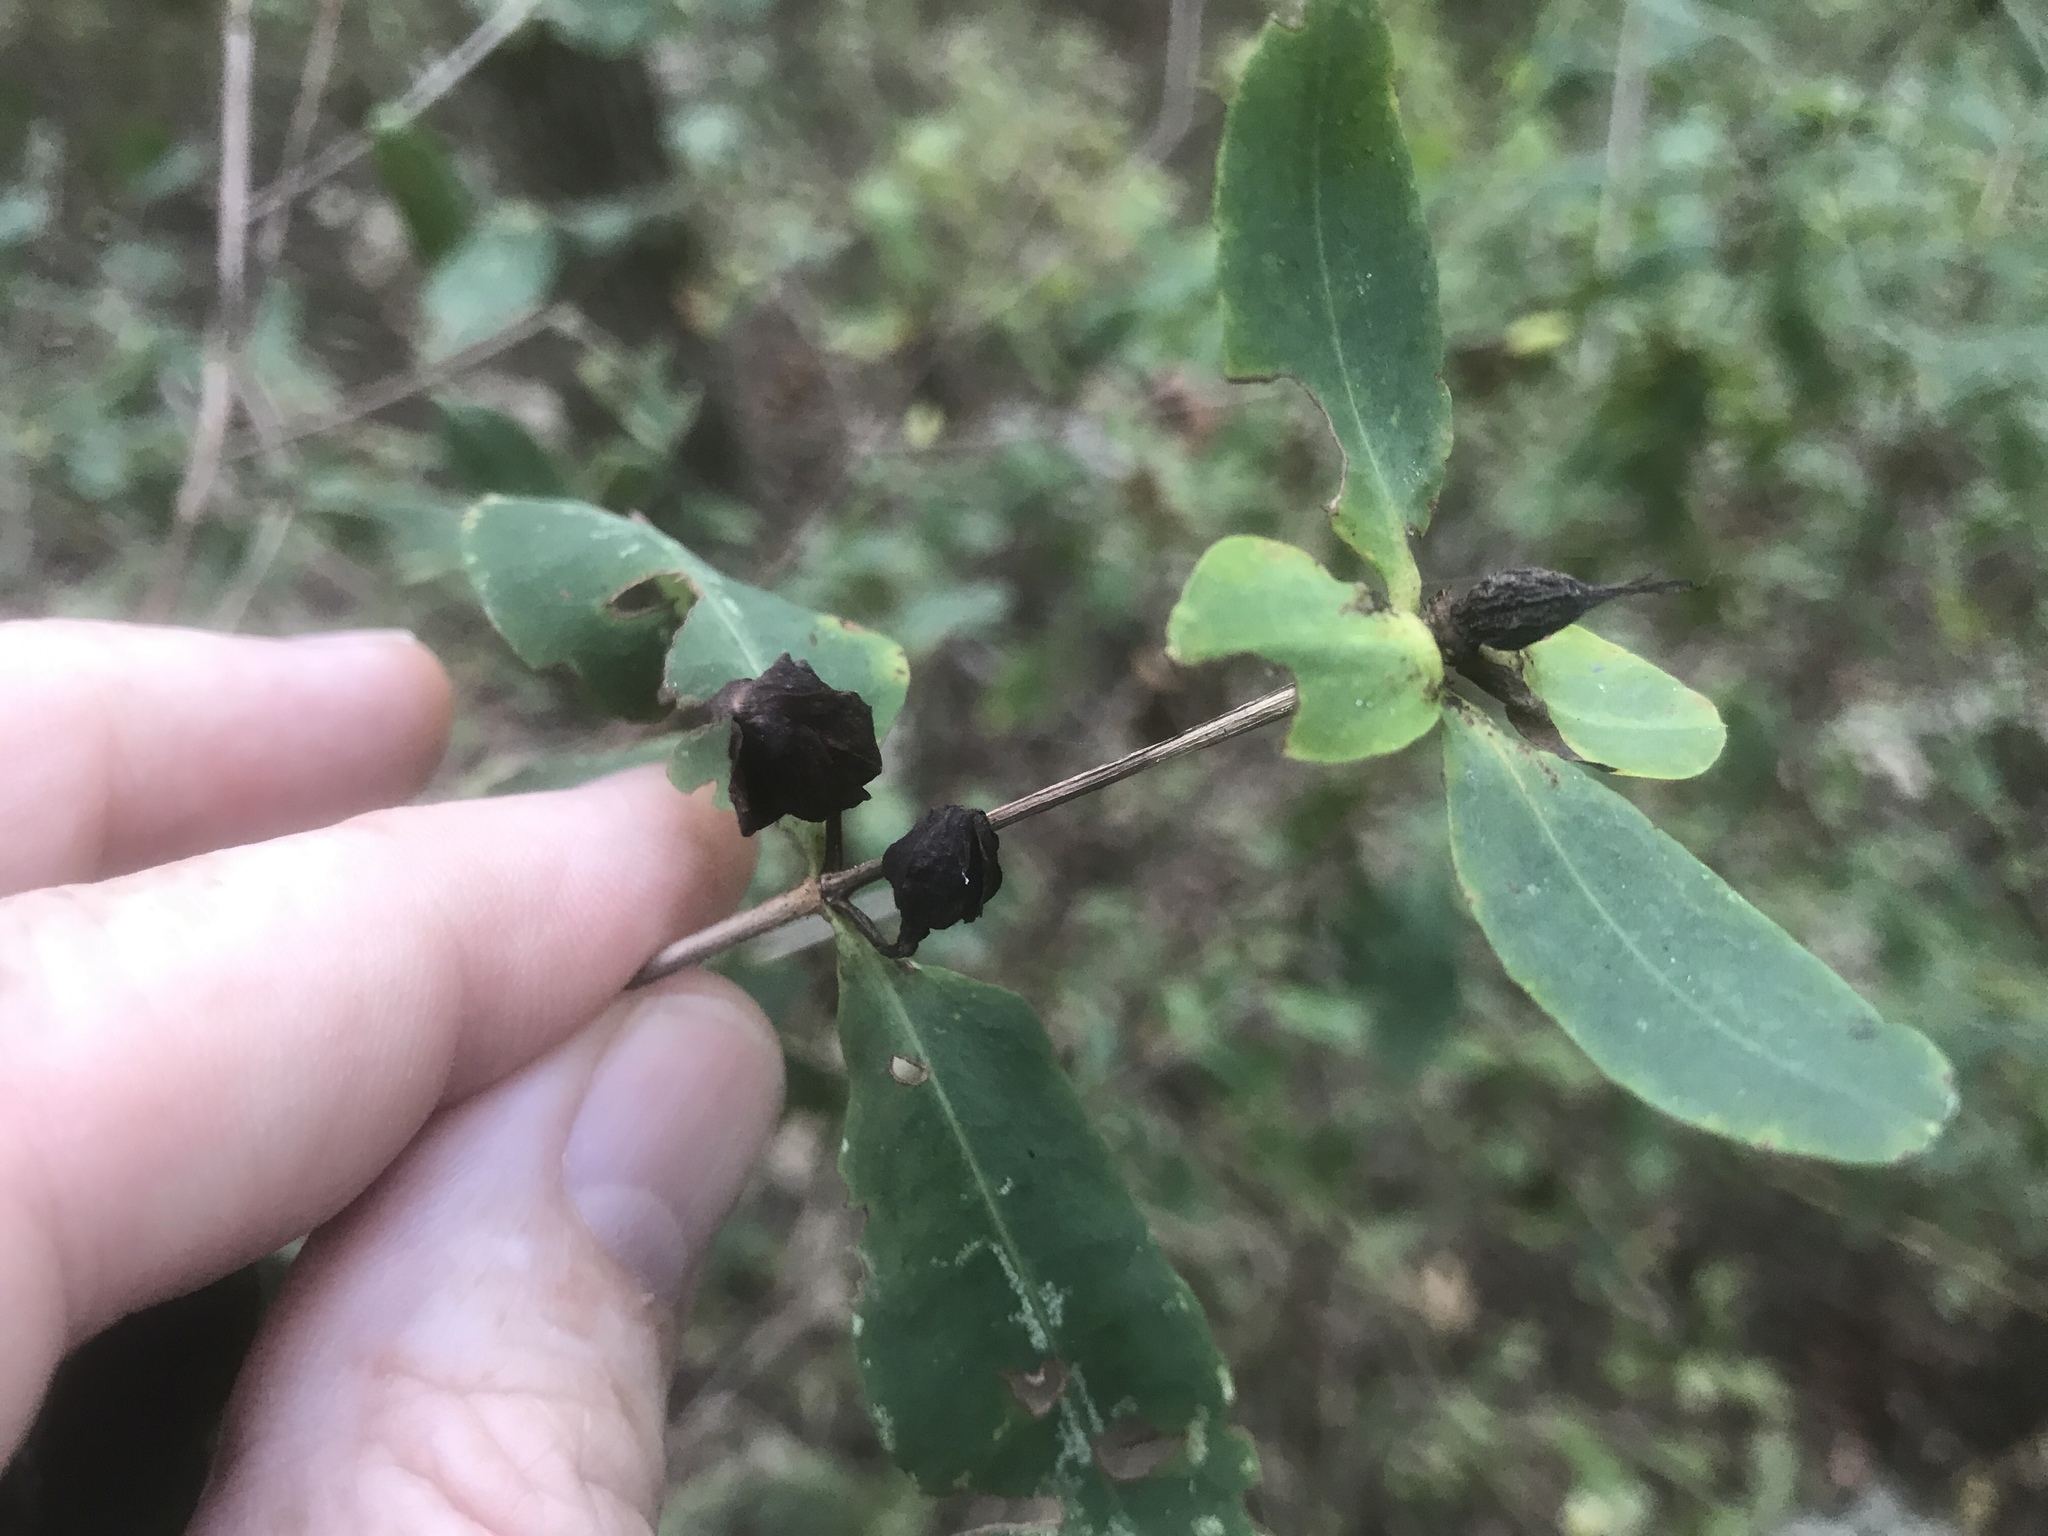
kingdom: Plantae
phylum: Tracheophyta
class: Magnoliopsida
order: Malpighiales
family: Hypericaceae
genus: Hypericum
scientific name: Hypericum frondosum
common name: Golden st. john's-wort
